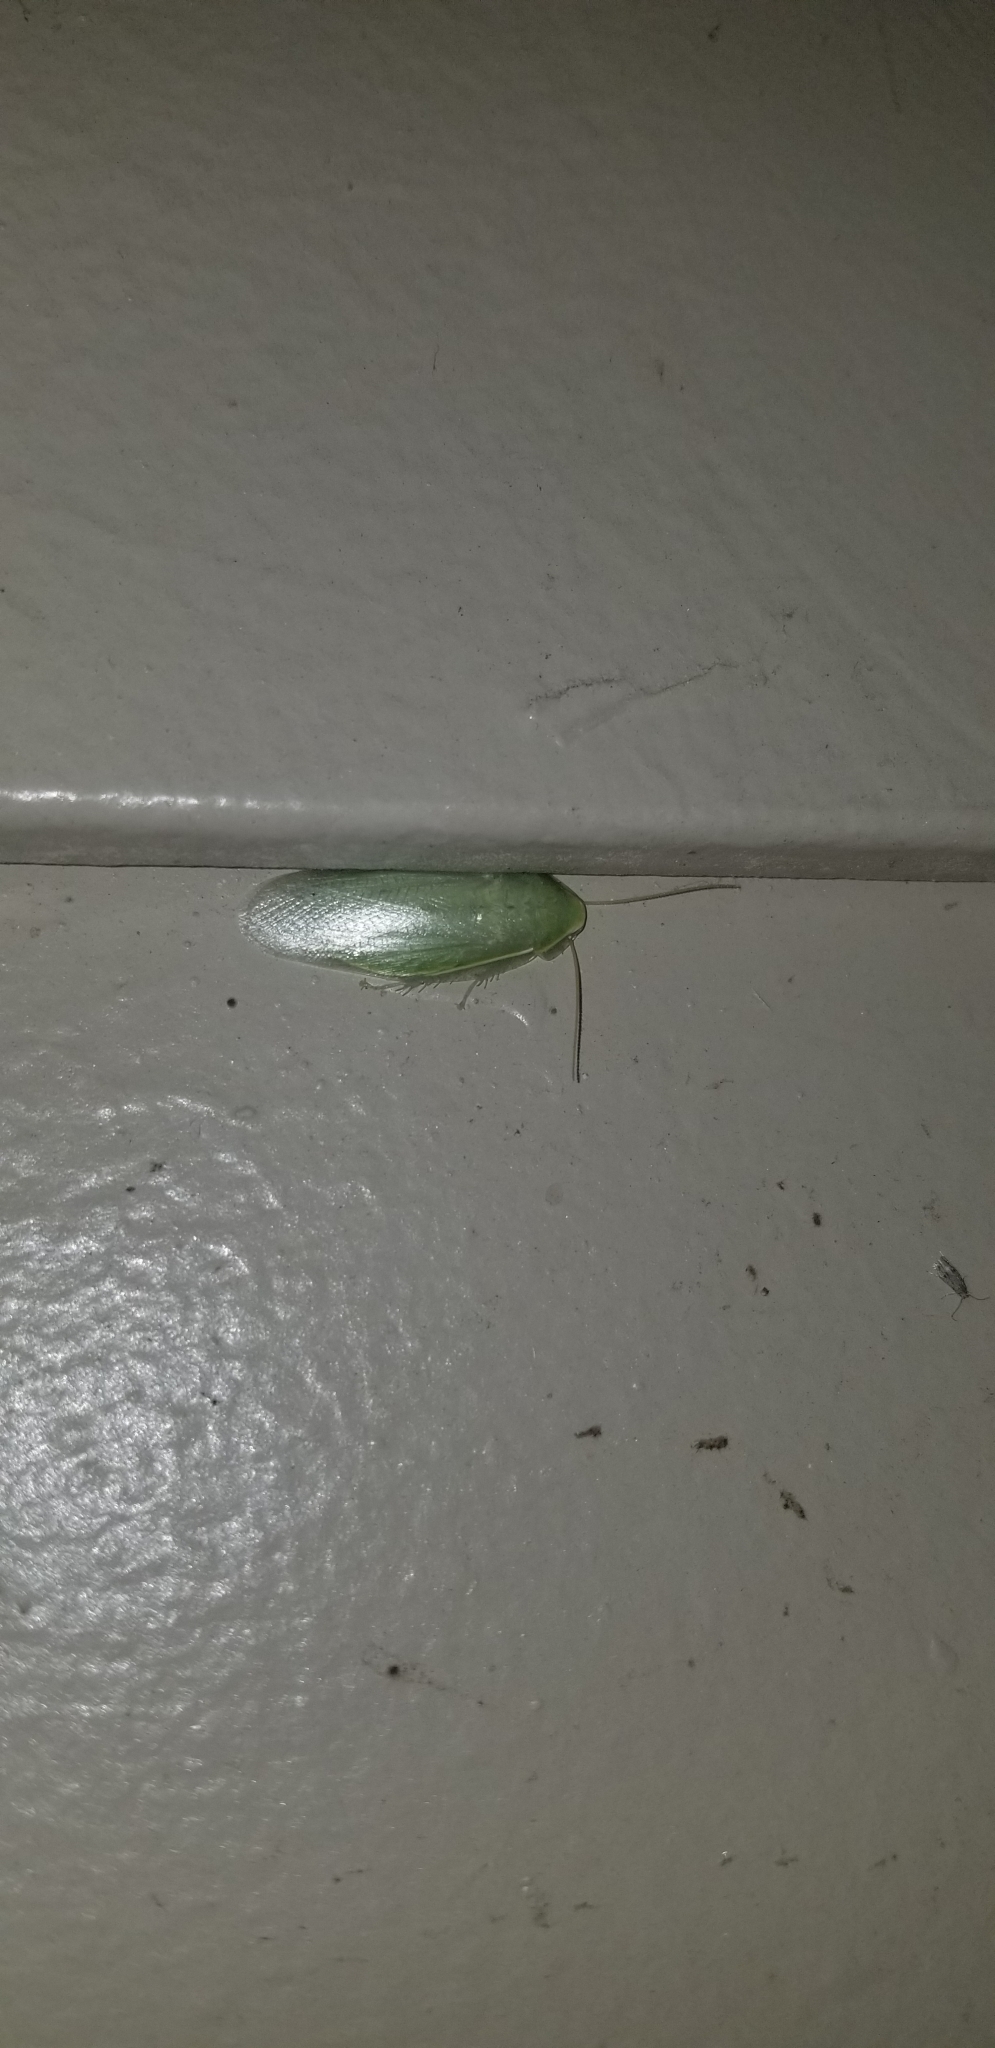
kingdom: Animalia
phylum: Arthropoda
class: Insecta
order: Blattodea
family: Blaberidae
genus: Panchlora
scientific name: Panchlora nivea
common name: Cuban cockroach
